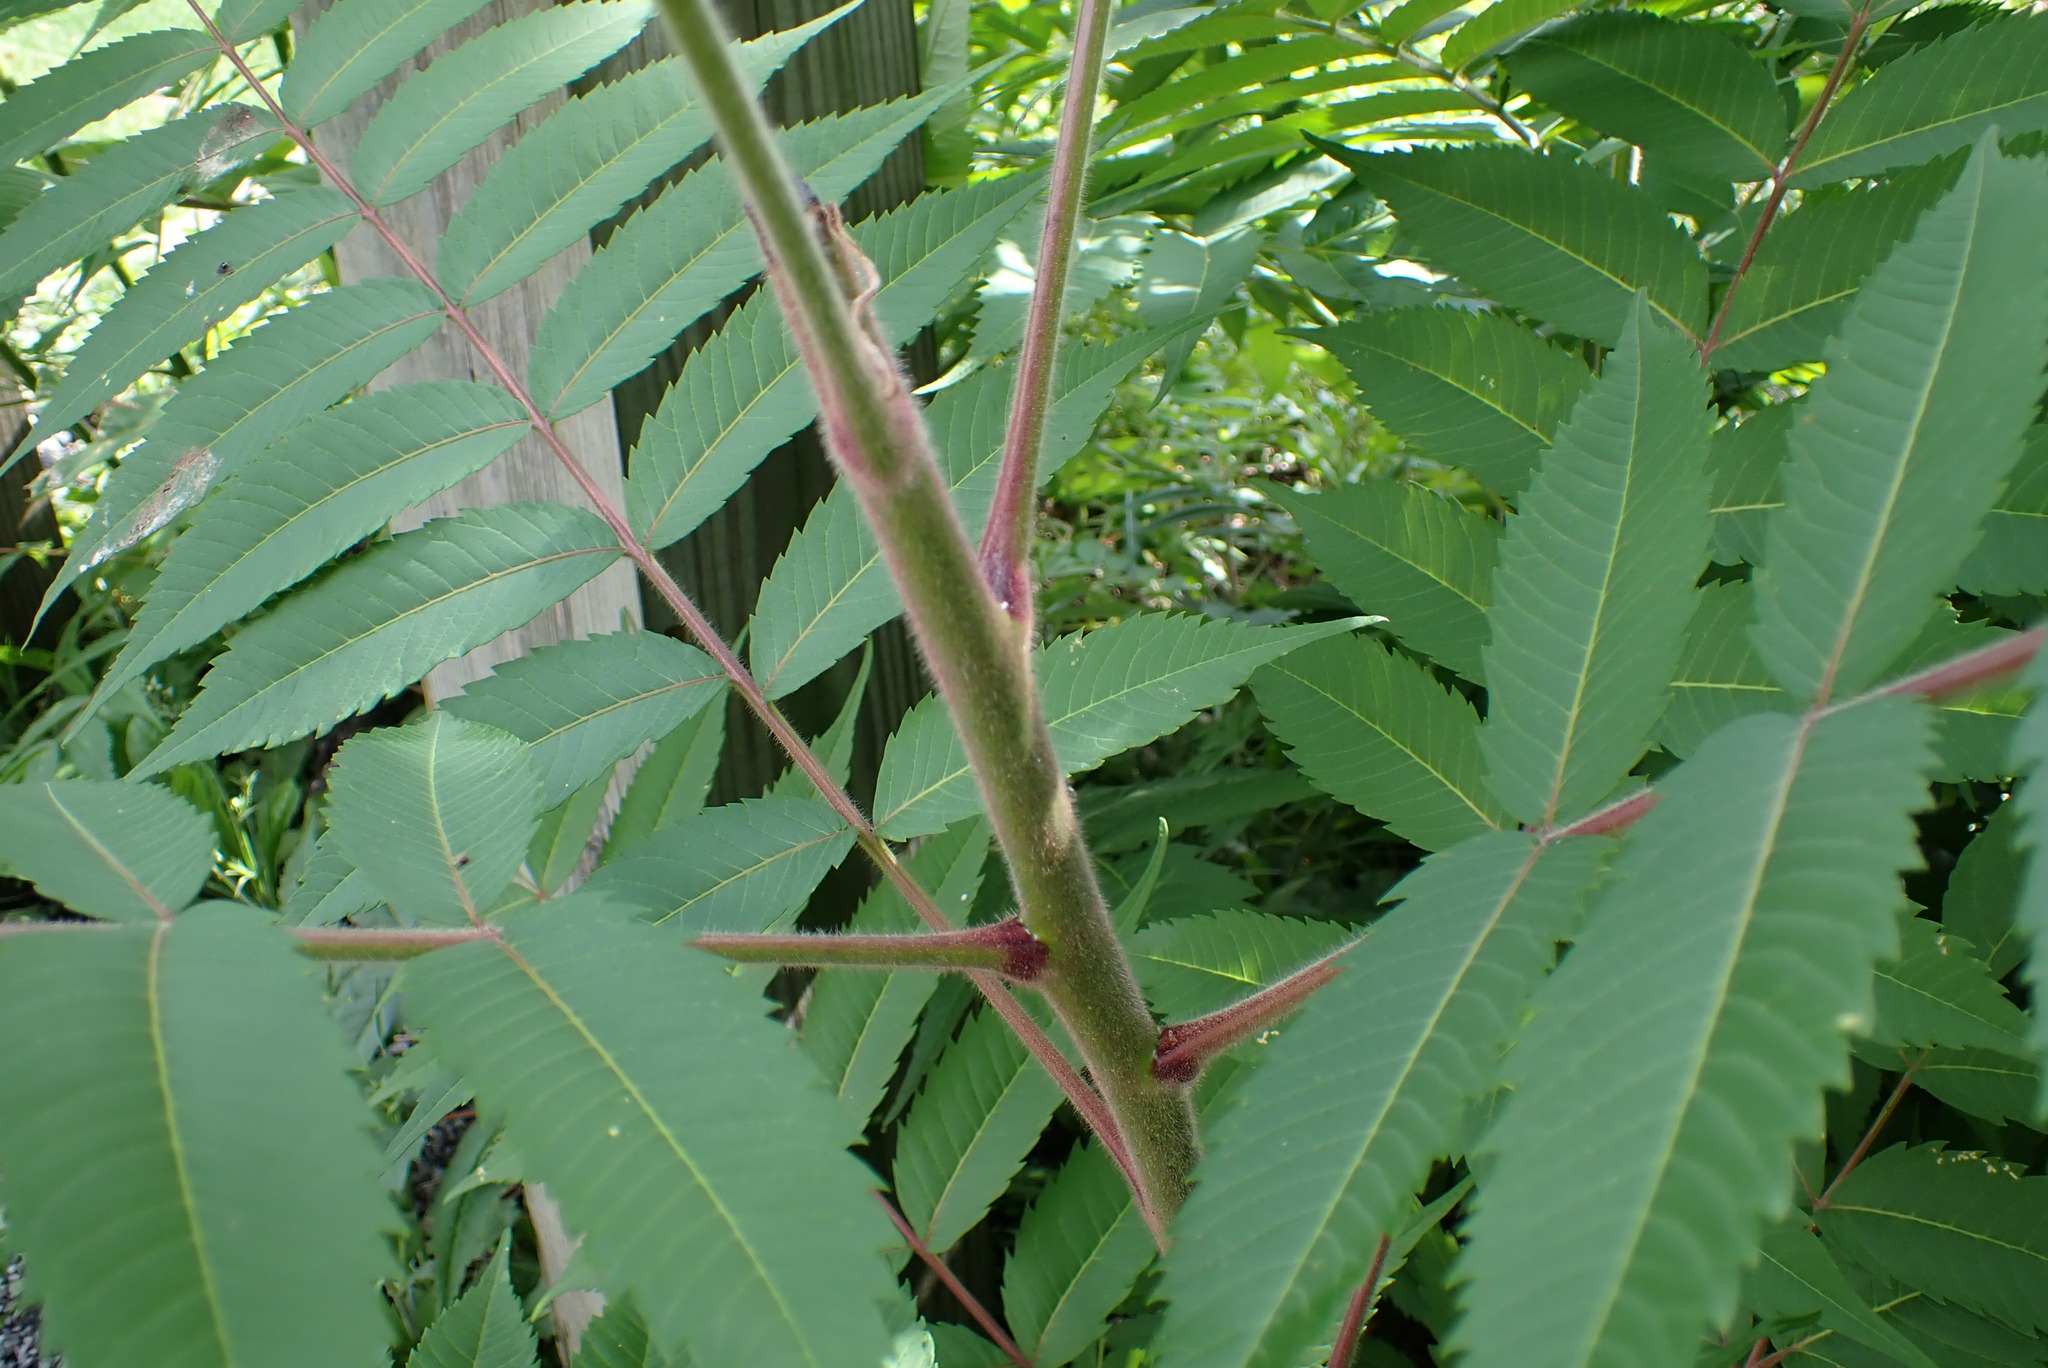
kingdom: Plantae
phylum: Tracheophyta
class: Magnoliopsida
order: Sapindales
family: Anacardiaceae
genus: Rhus
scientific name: Rhus typhina
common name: Staghorn sumac
